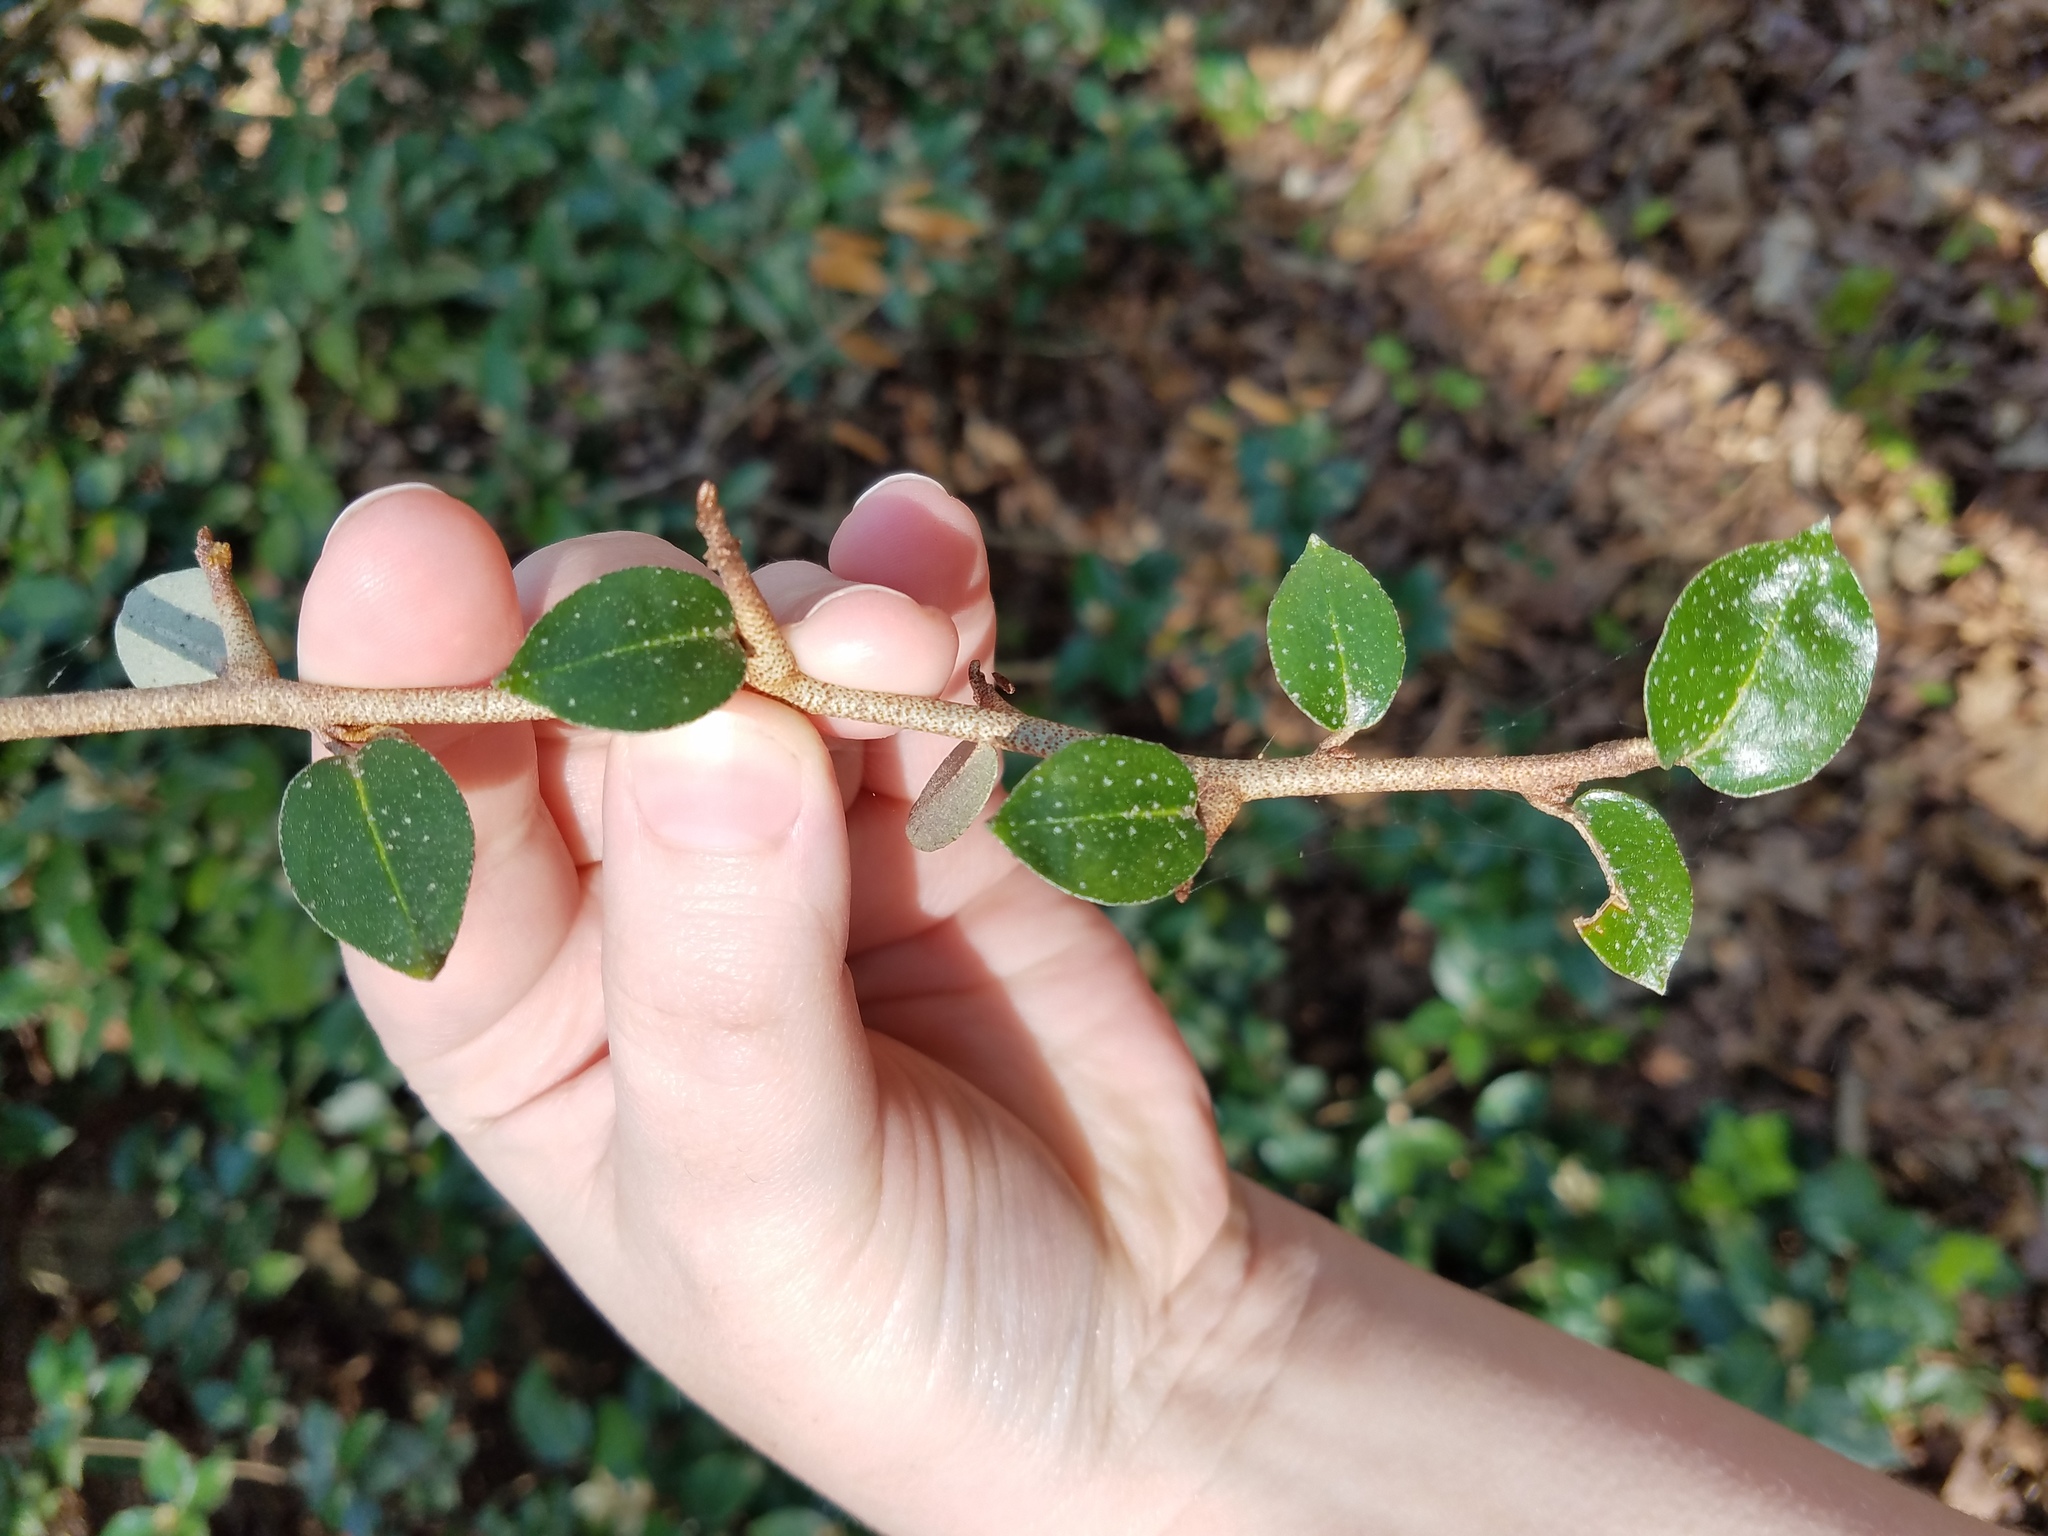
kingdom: Plantae
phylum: Tracheophyta
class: Magnoliopsida
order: Rosales
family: Elaeagnaceae
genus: Elaeagnus
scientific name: Elaeagnus pungens
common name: Spiny oleaster
